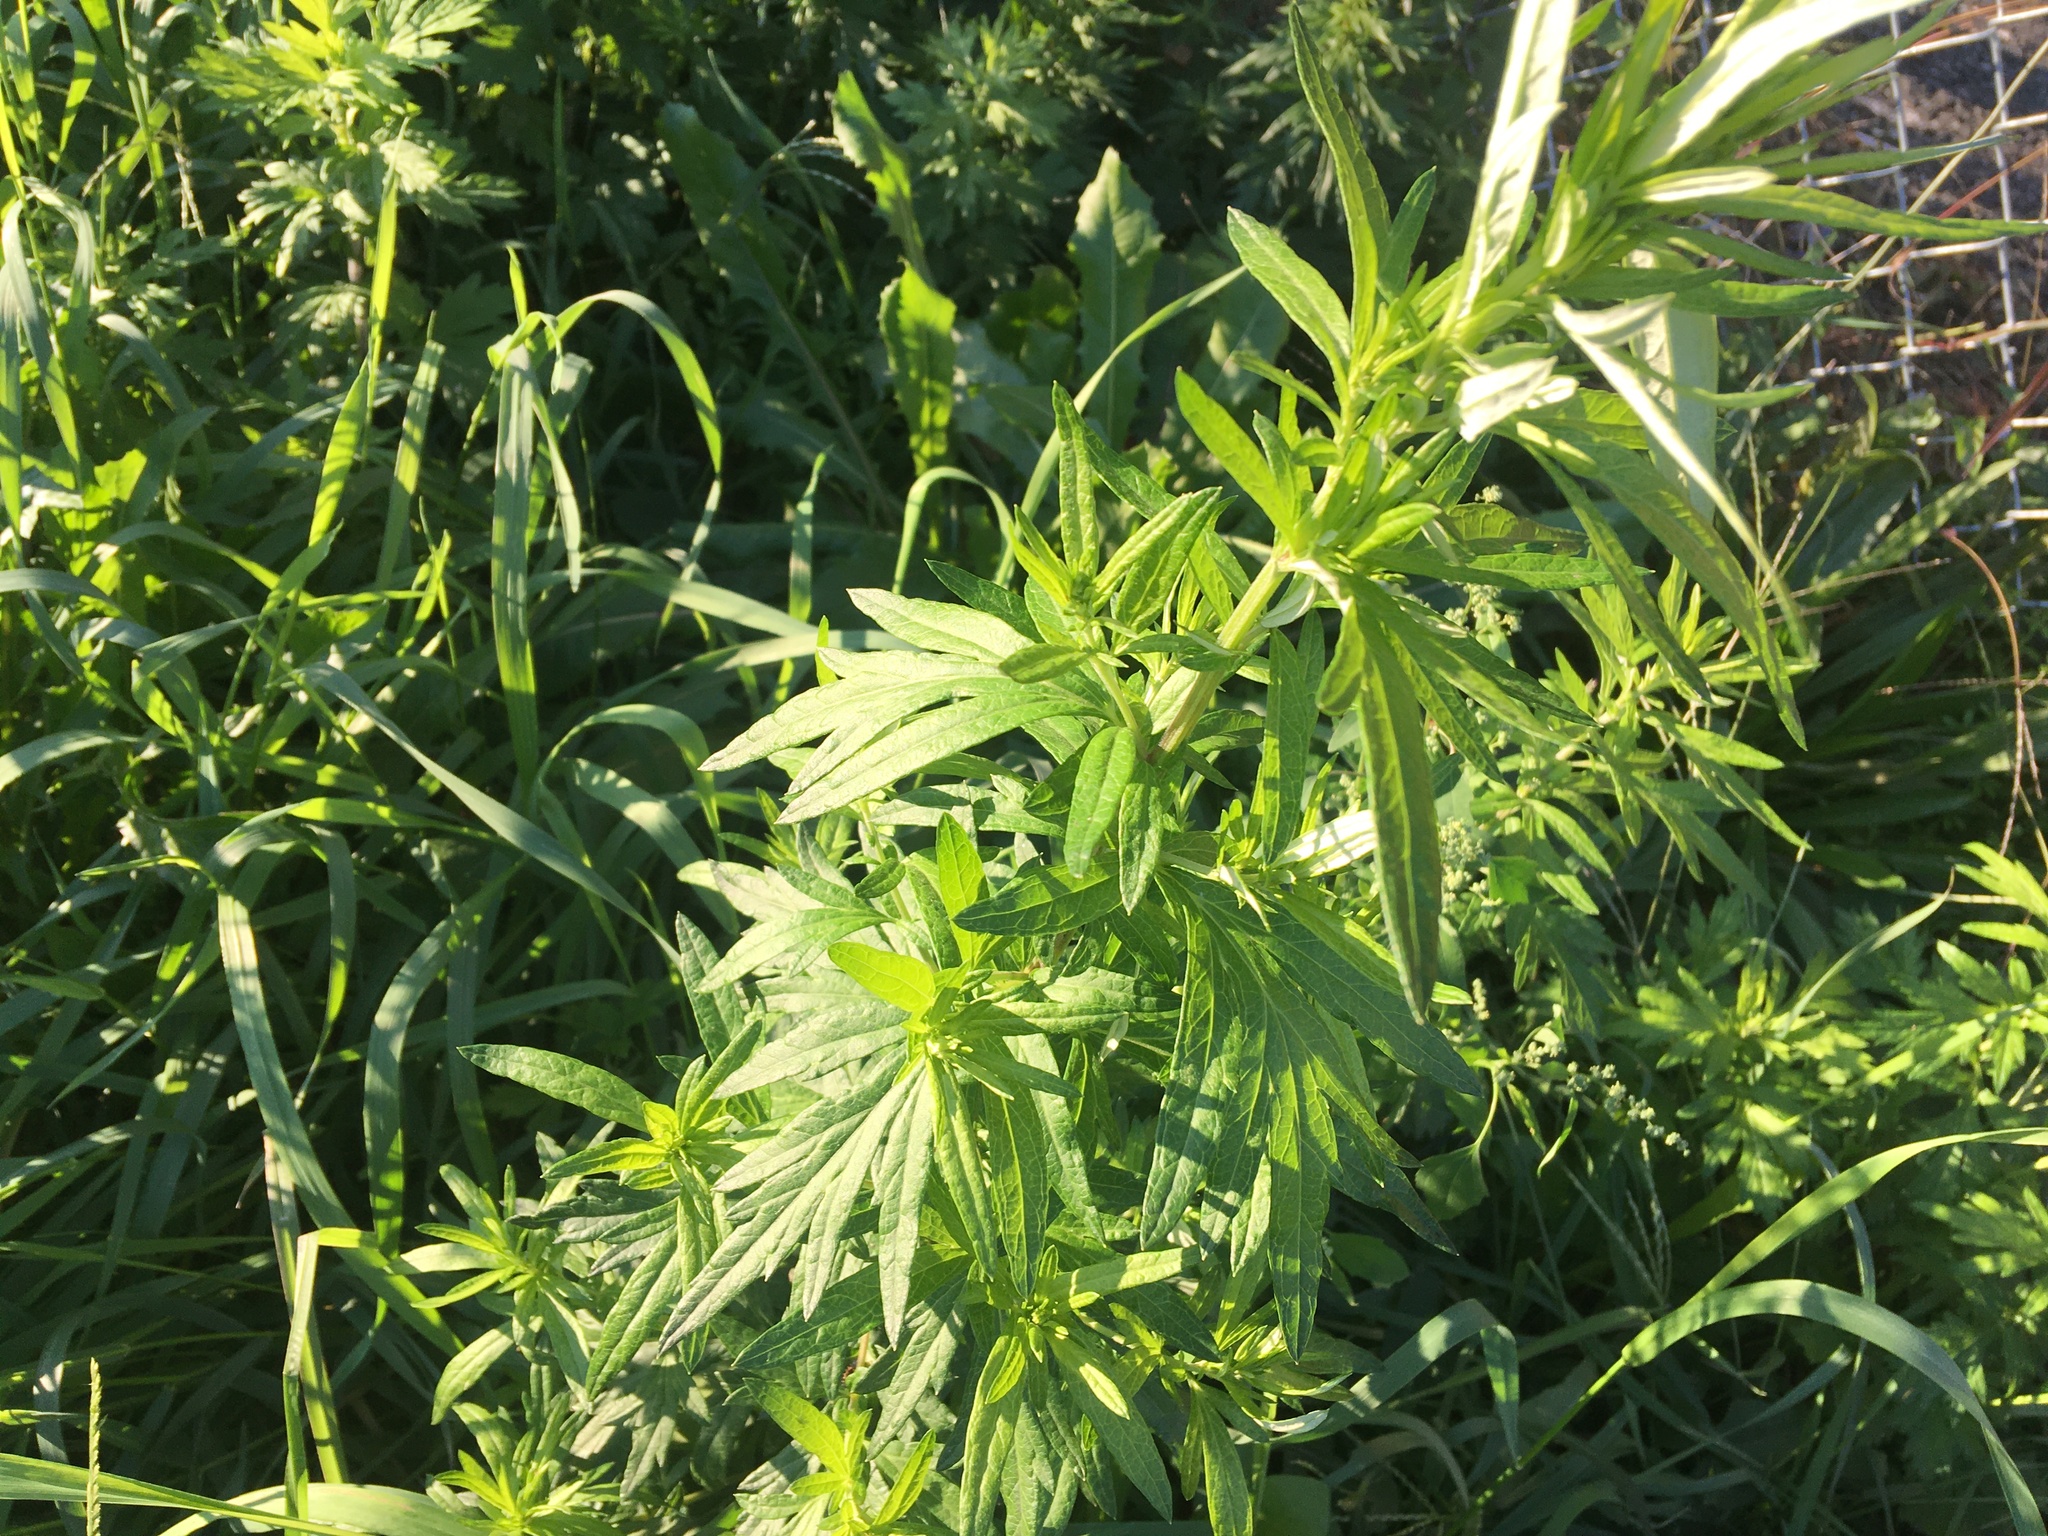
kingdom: Plantae
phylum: Tracheophyta
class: Magnoliopsida
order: Asterales
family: Asteraceae
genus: Artemisia
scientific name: Artemisia vulgaris
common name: Mugwort
